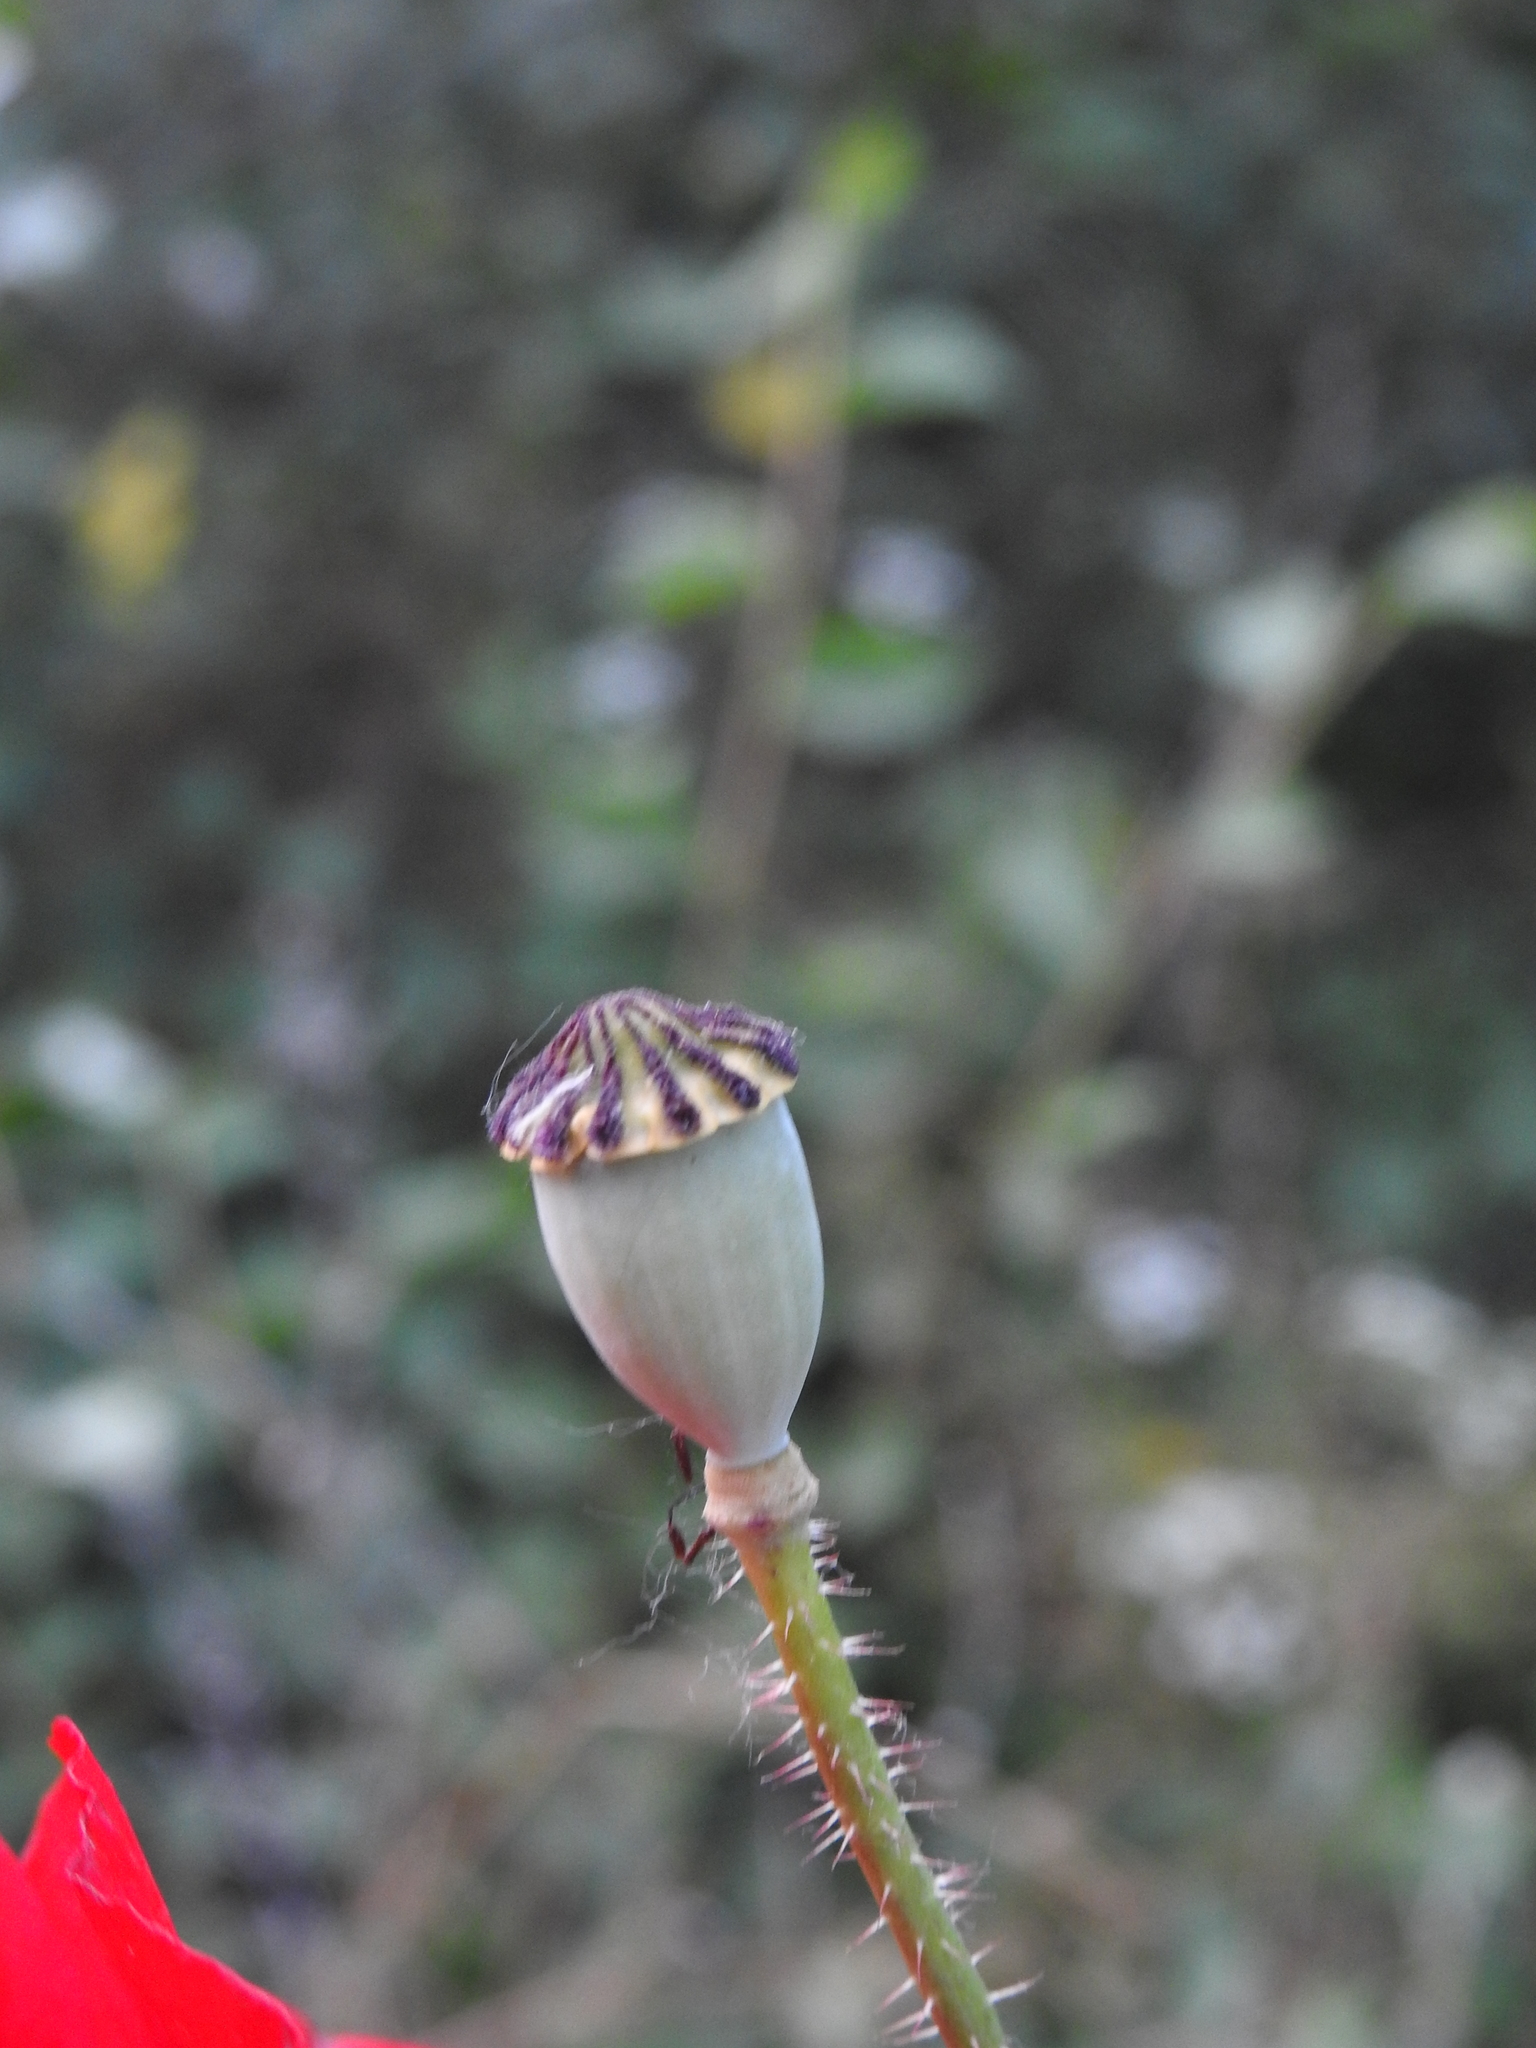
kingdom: Plantae
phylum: Tracheophyta
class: Magnoliopsida
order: Ranunculales
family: Papaveraceae
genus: Papaver
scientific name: Papaver rhoeas
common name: Corn poppy
